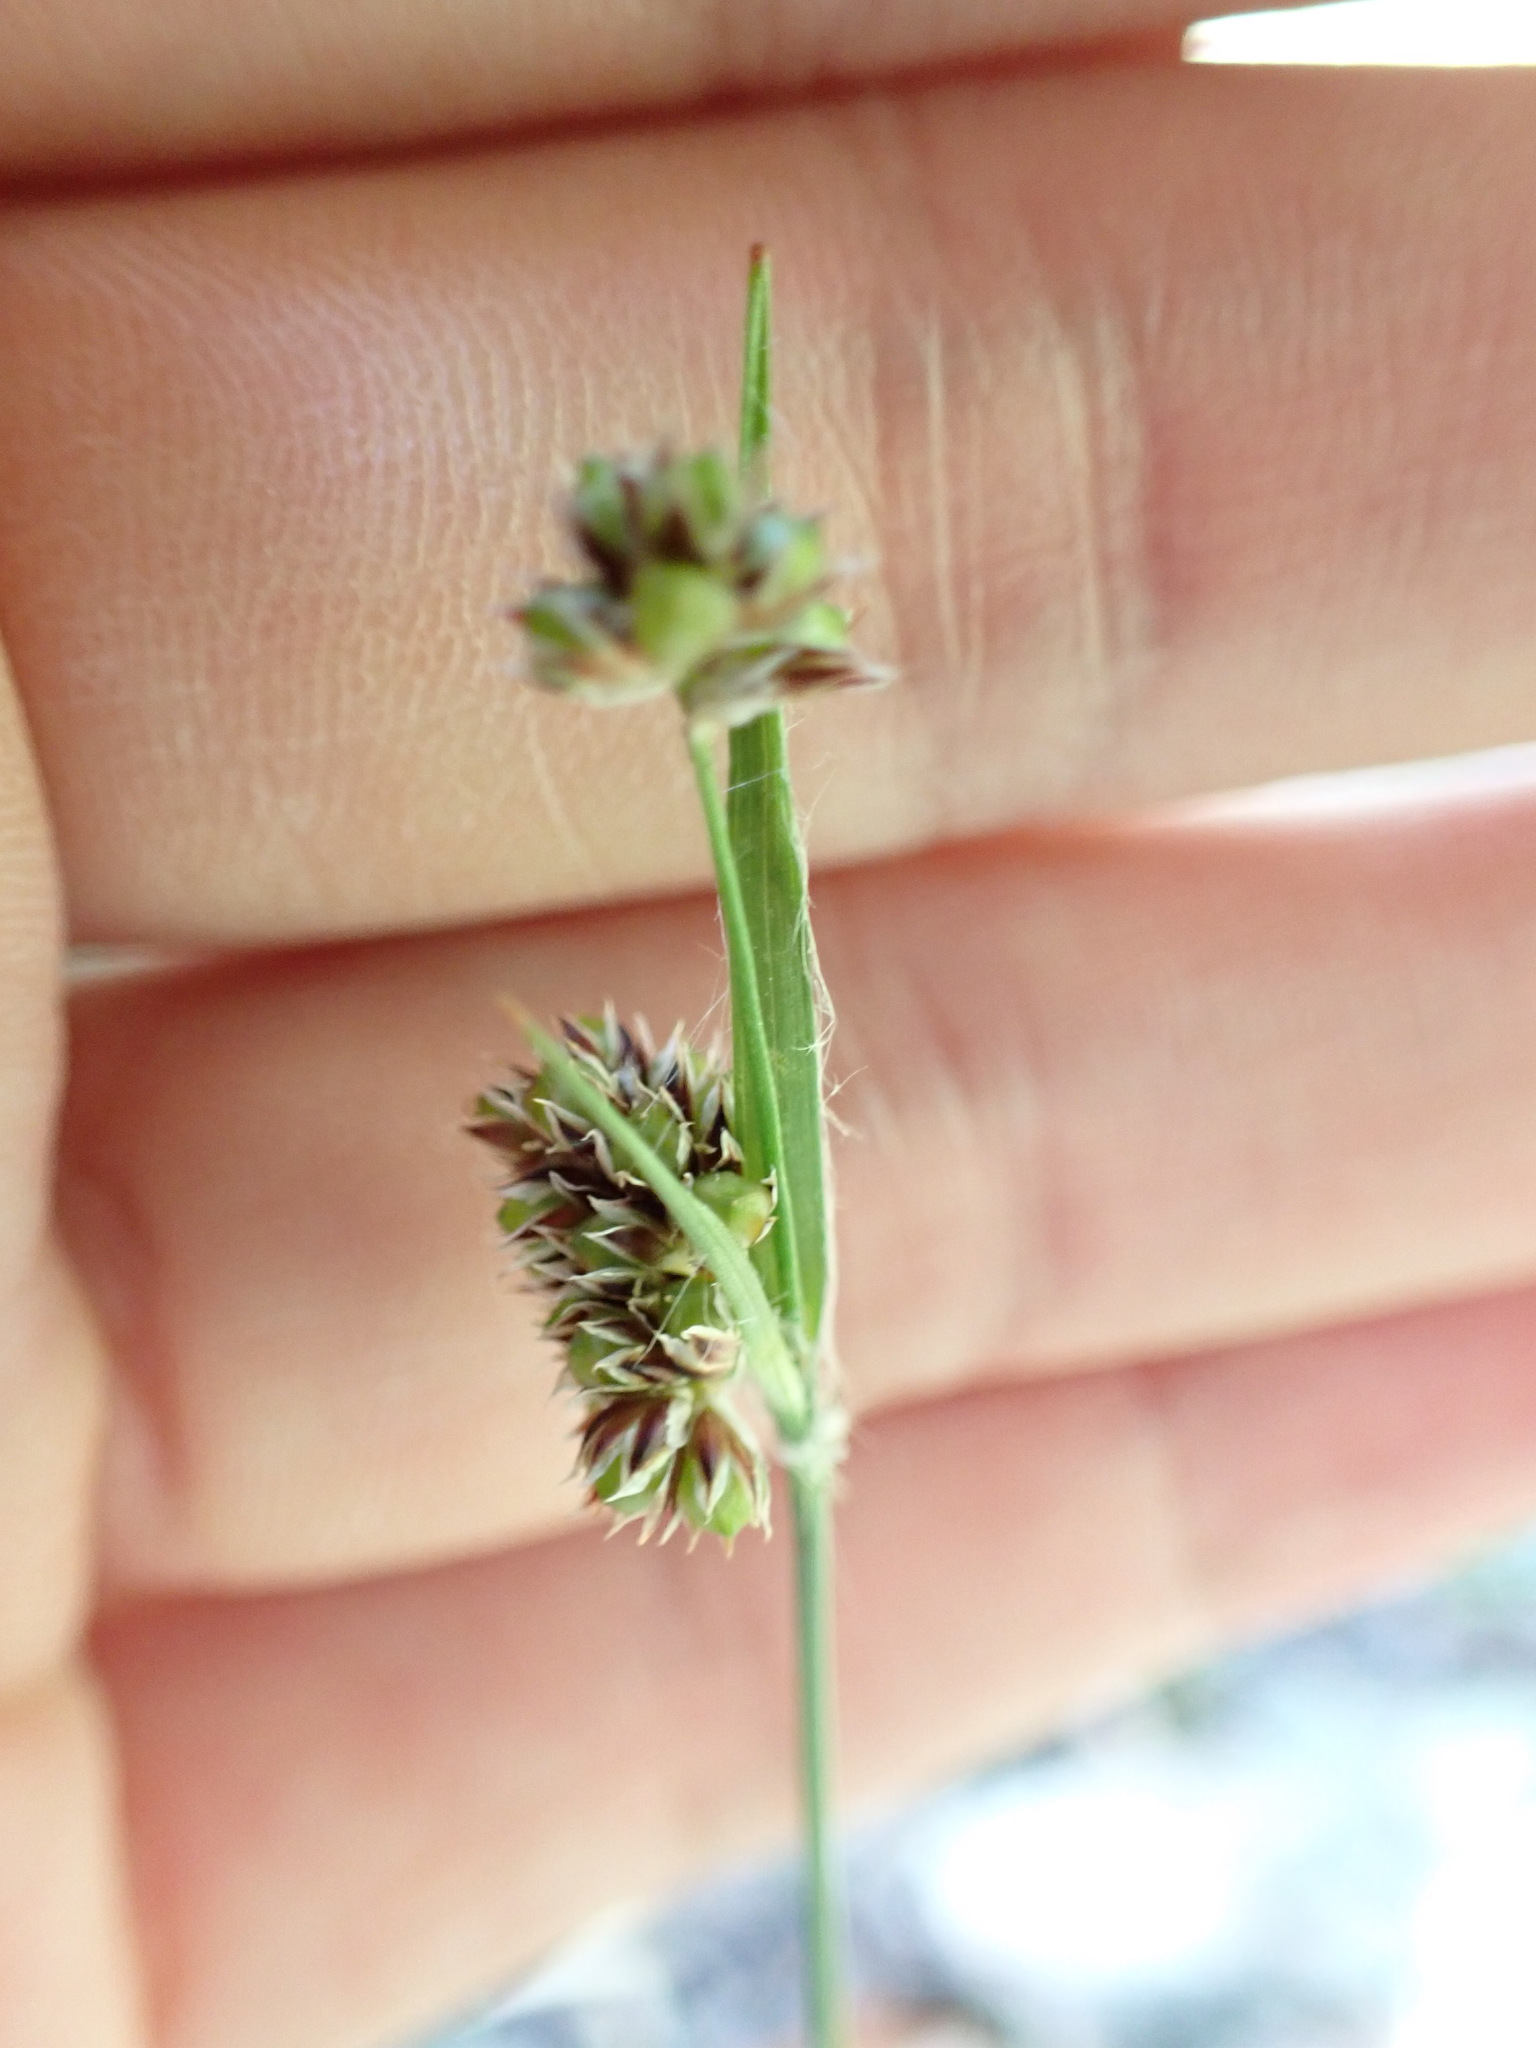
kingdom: Plantae
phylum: Tracheophyta
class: Liliopsida
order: Poales
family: Juncaceae
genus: Luzula
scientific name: Luzula capitata
